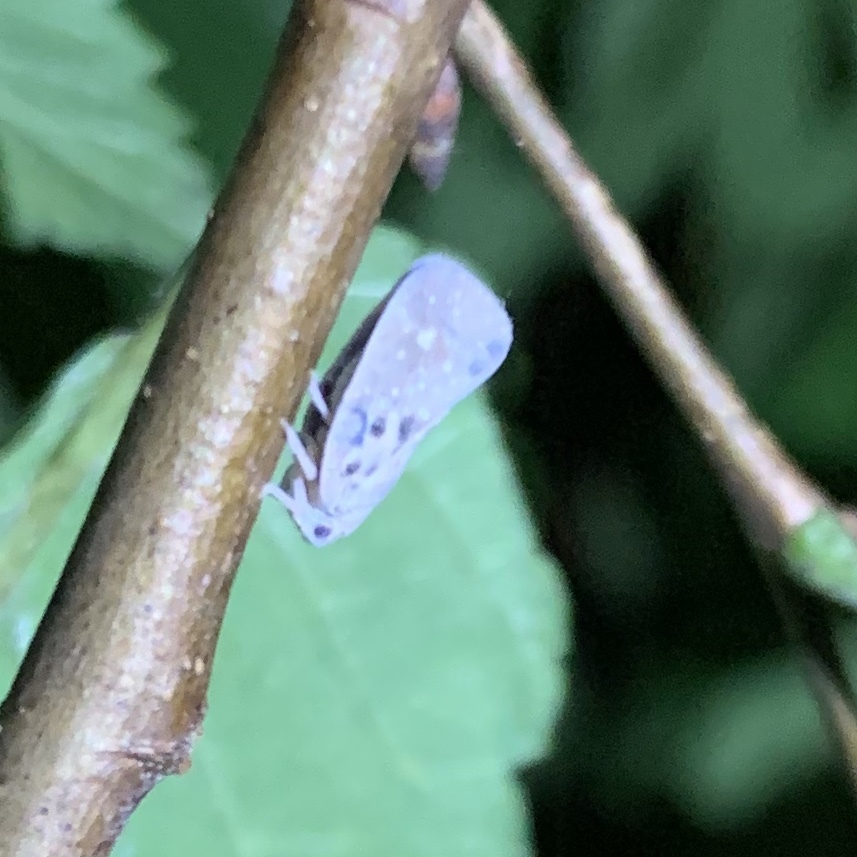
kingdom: Animalia
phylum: Arthropoda
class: Insecta
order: Hemiptera
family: Flatidae
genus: Metcalfa
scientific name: Metcalfa pruinosa
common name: Citrus flatid planthopper
